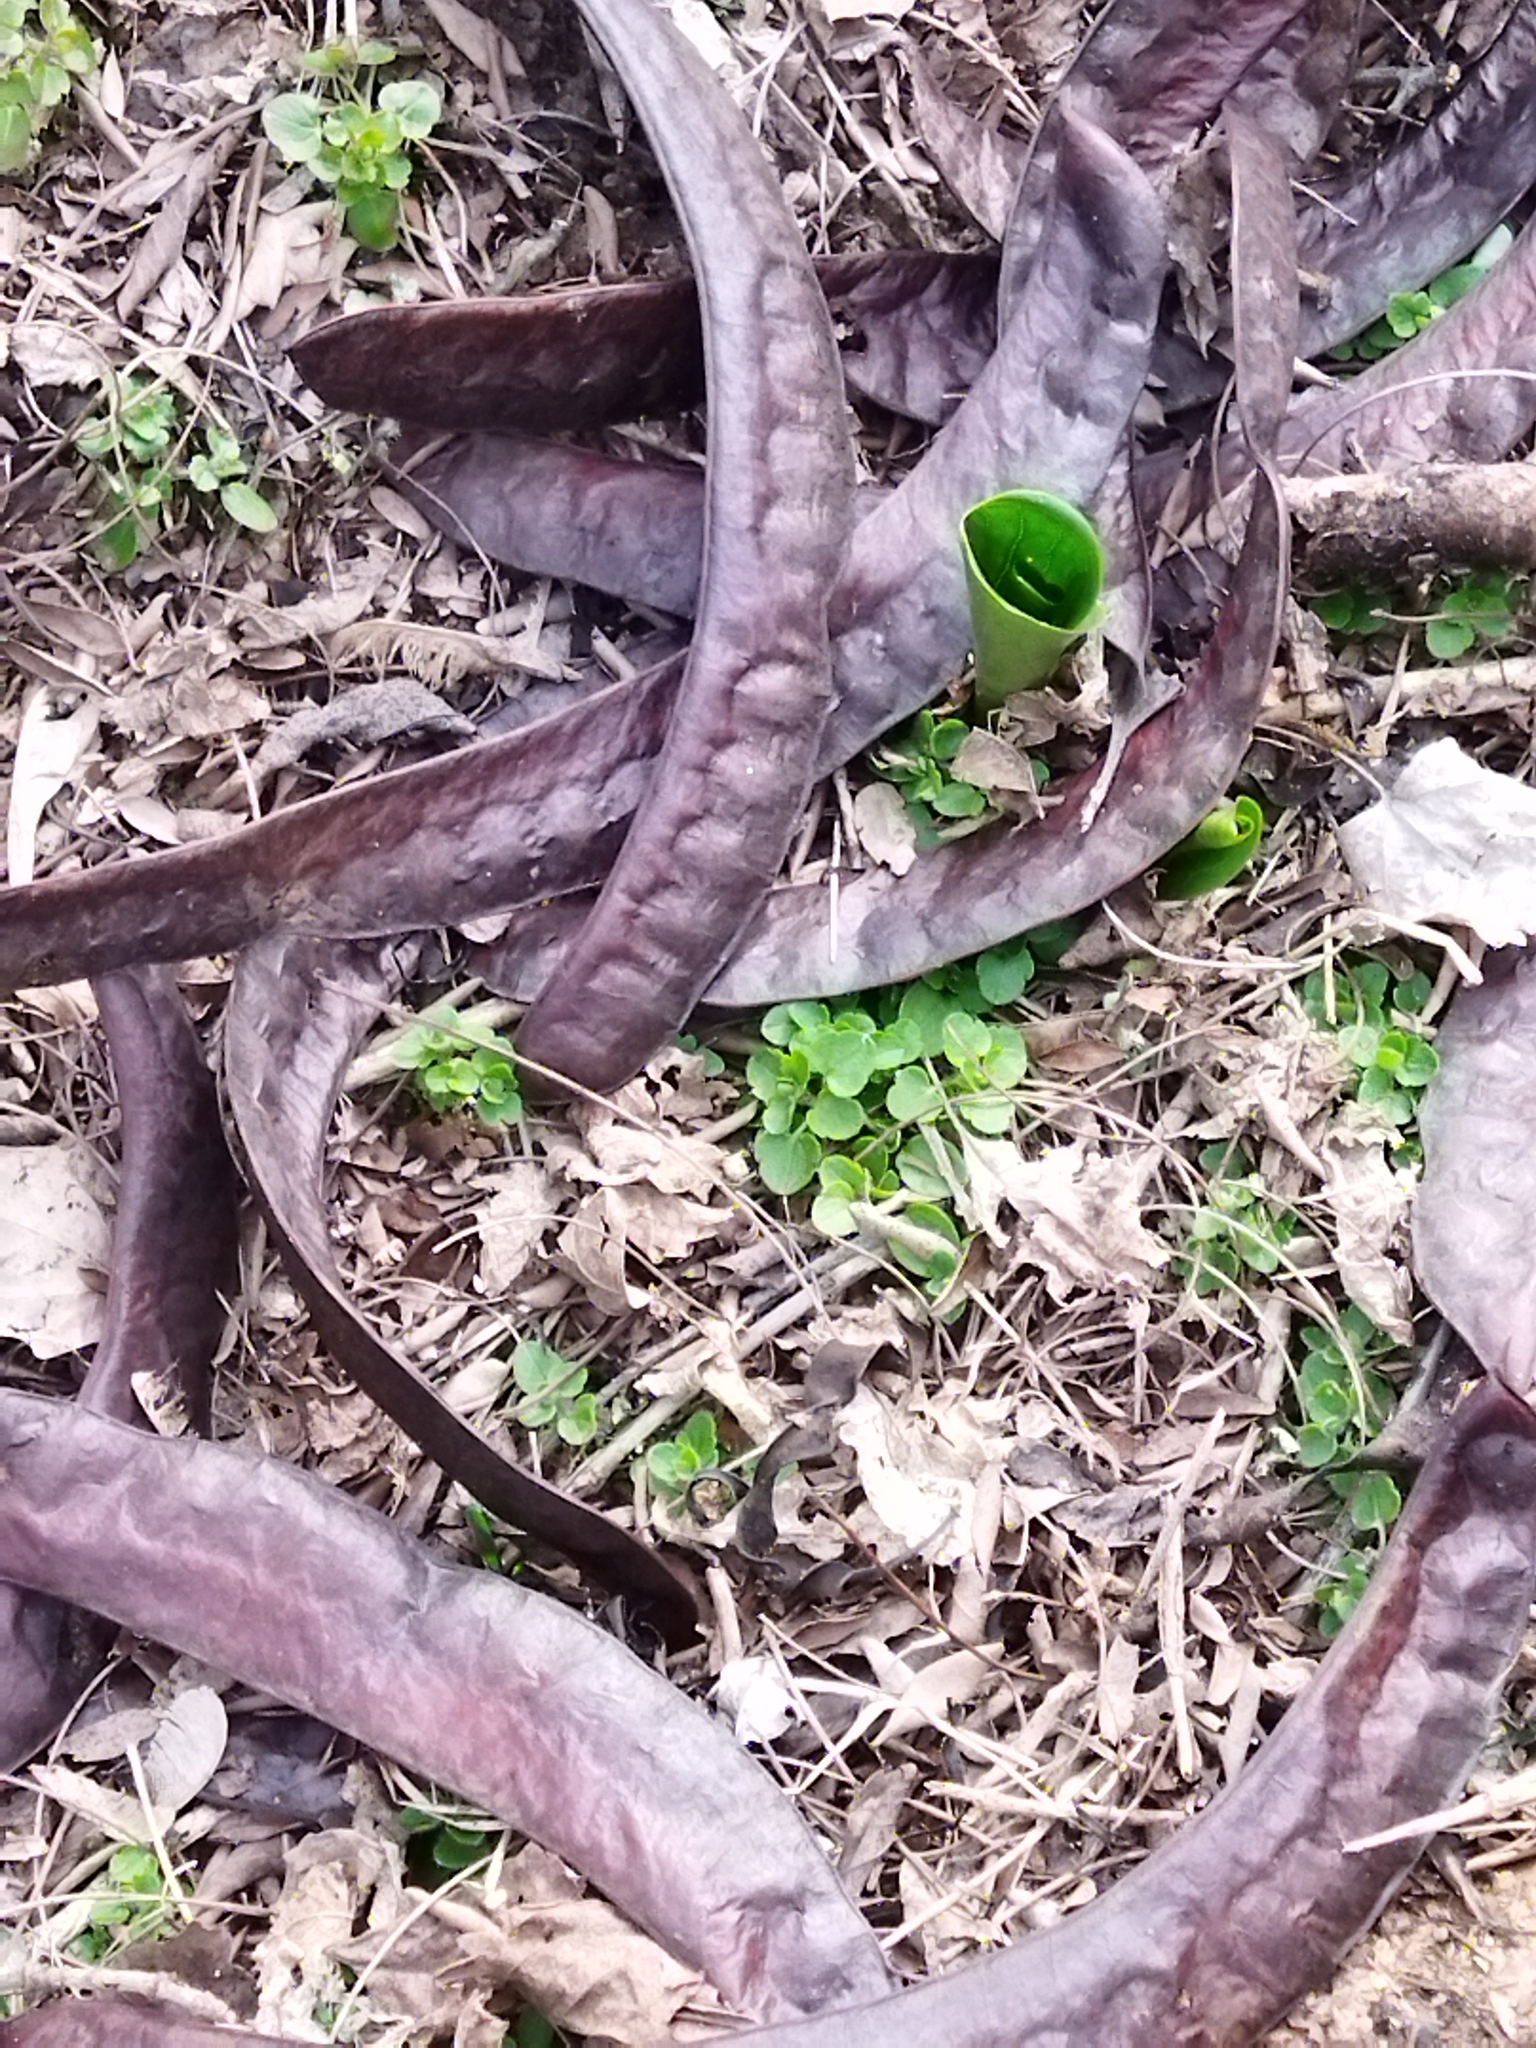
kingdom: Plantae
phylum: Tracheophyta
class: Magnoliopsida
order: Fabales
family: Fabaceae
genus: Gleditsia
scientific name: Gleditsia triacanthos
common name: Common honeylocust
